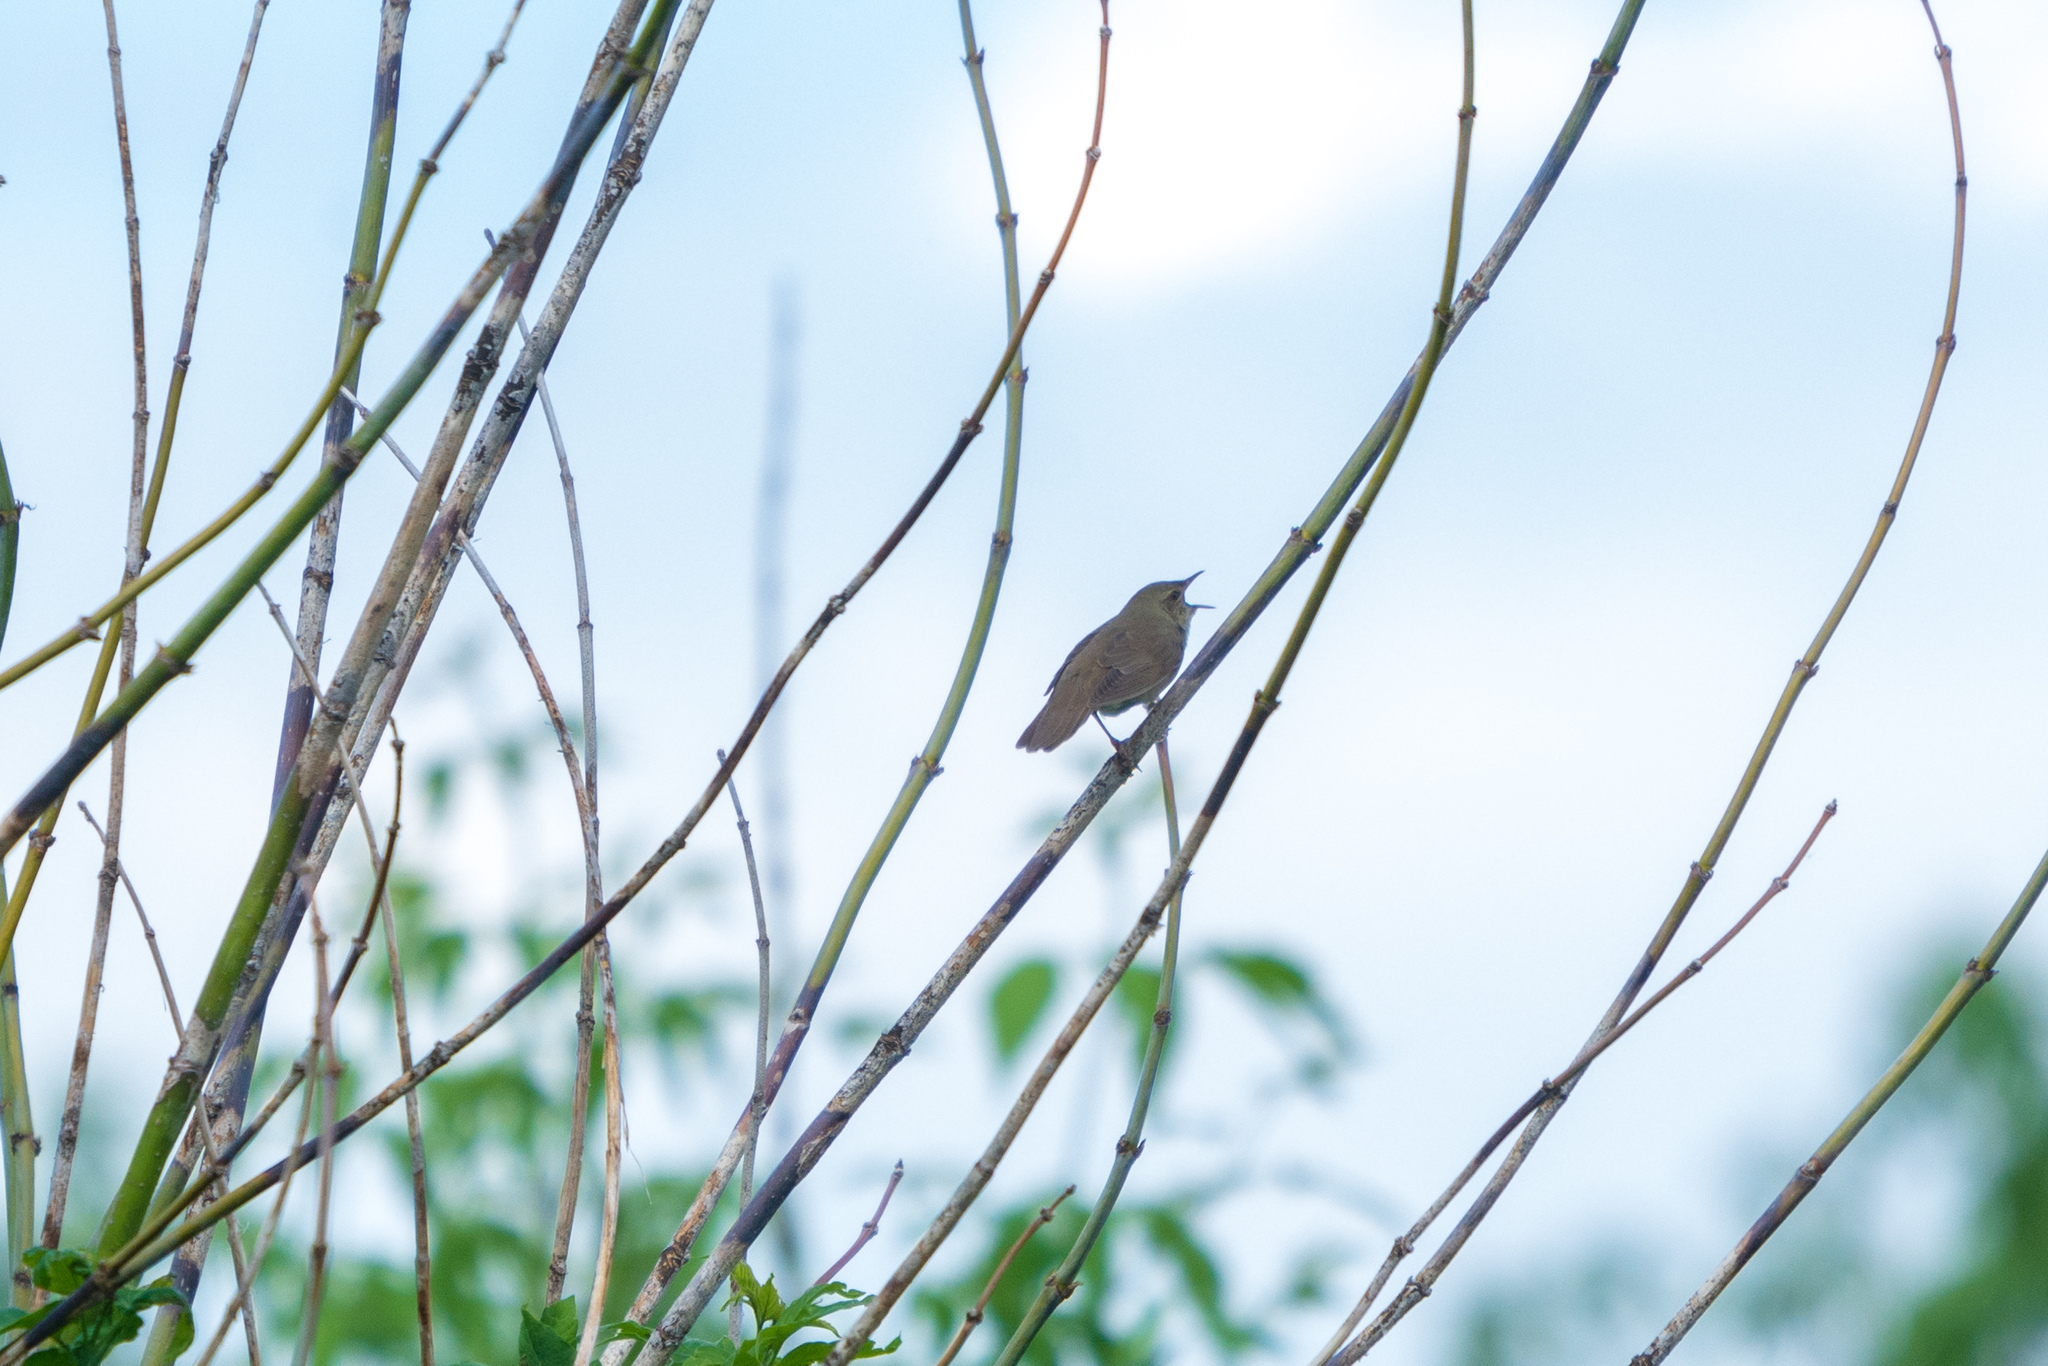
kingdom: Animalia
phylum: Chordata
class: Aves
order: Passeriformes
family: Locustellidae
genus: Locustella
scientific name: Locustella fluviatilis
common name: River warbler
